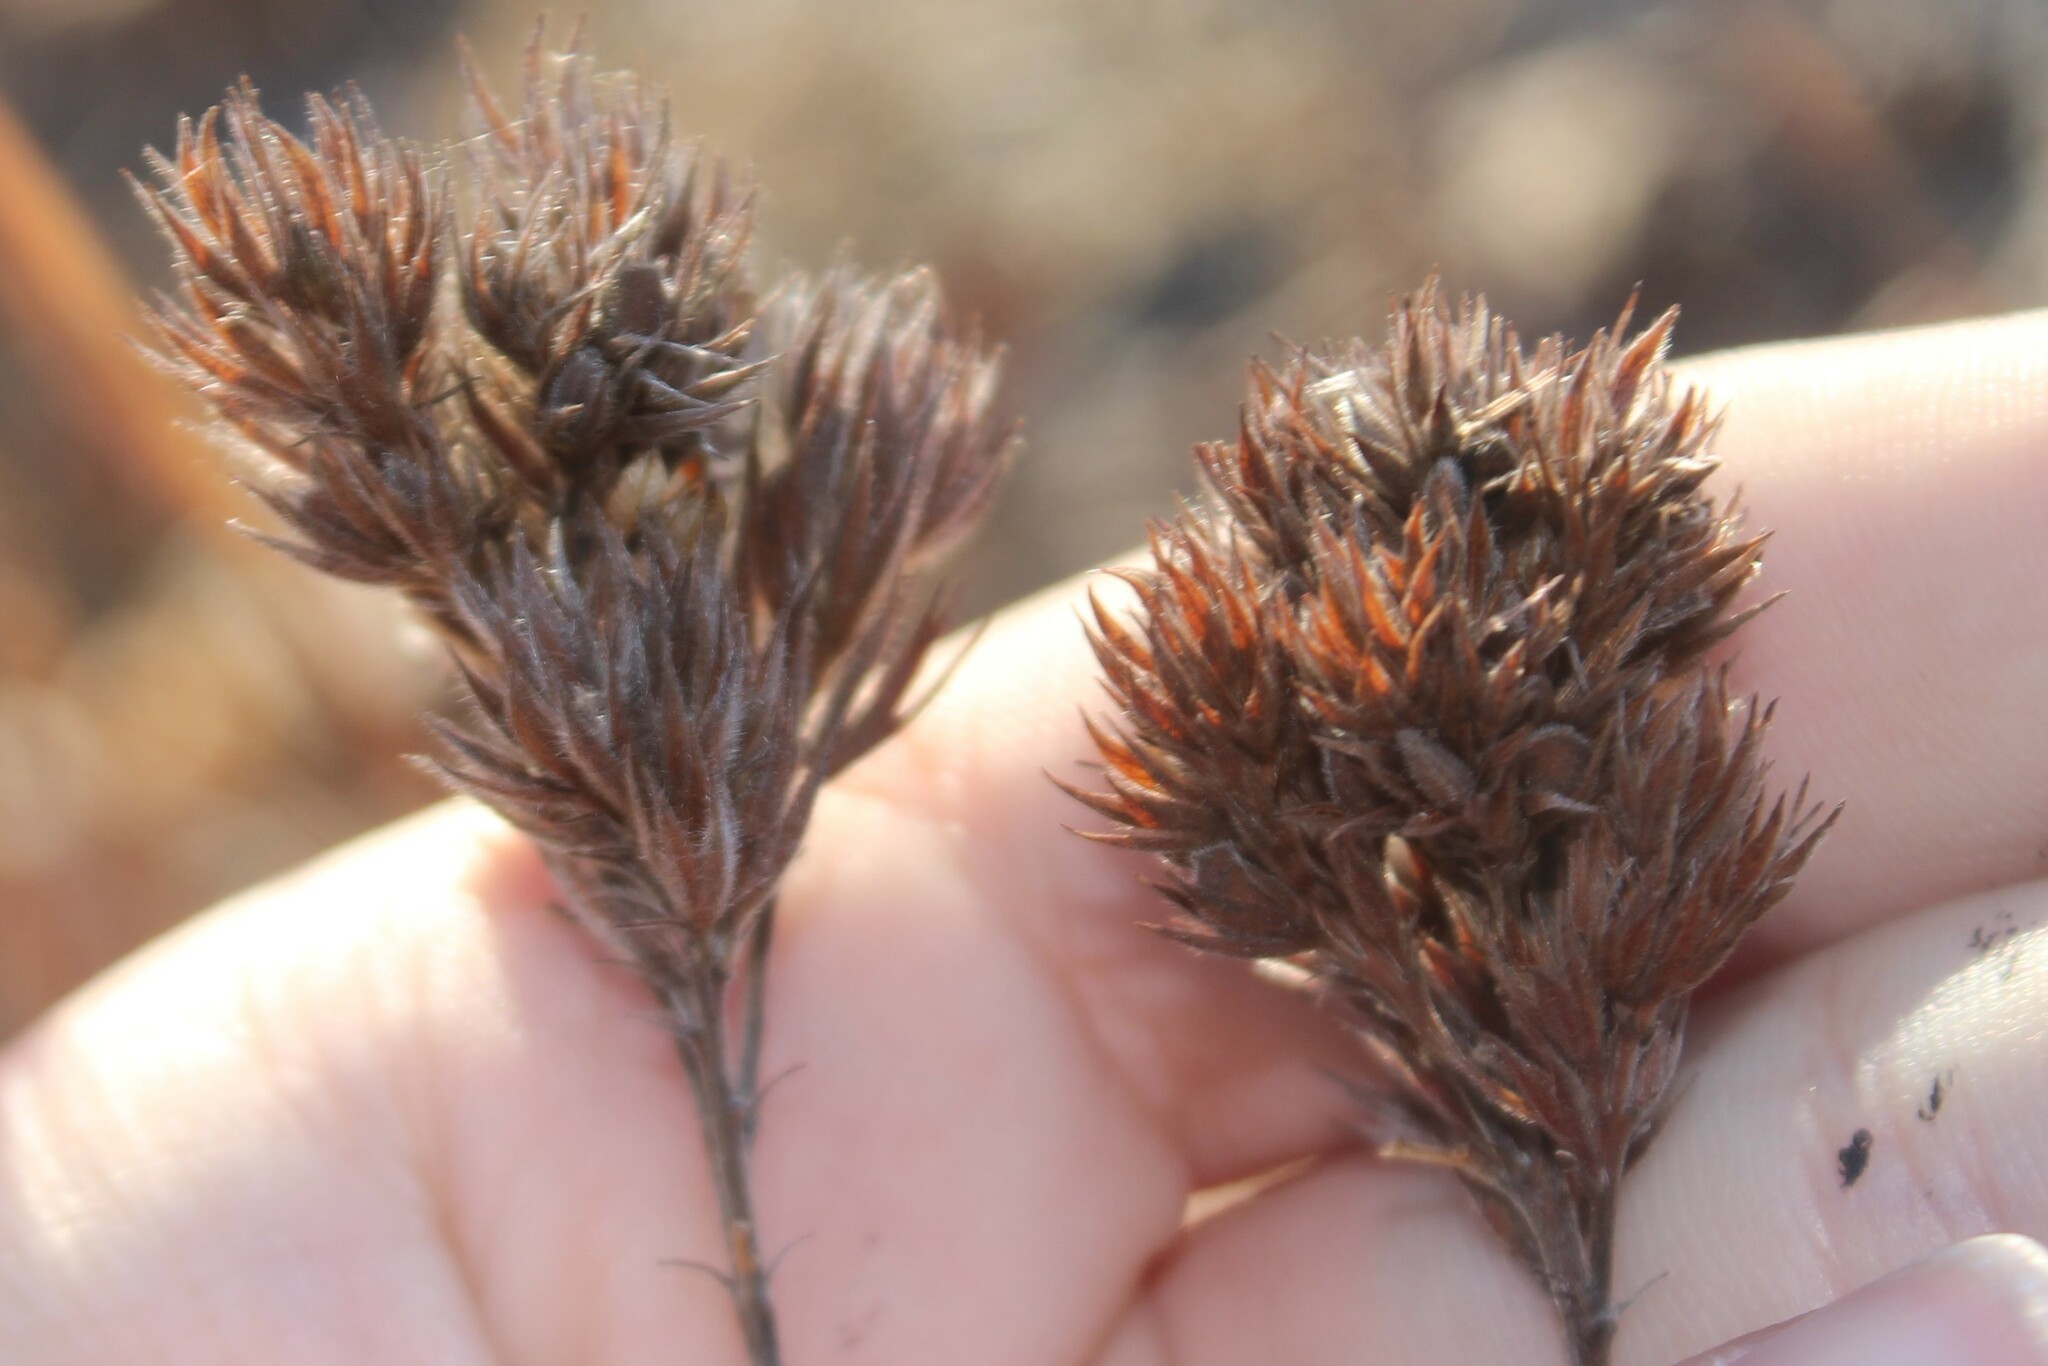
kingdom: Plantae
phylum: Tracheophyta
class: Magnoliopsida
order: Fabales
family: Fabaceae
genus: Lespedeza
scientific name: Lespedeza capitata
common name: Dusty clover
